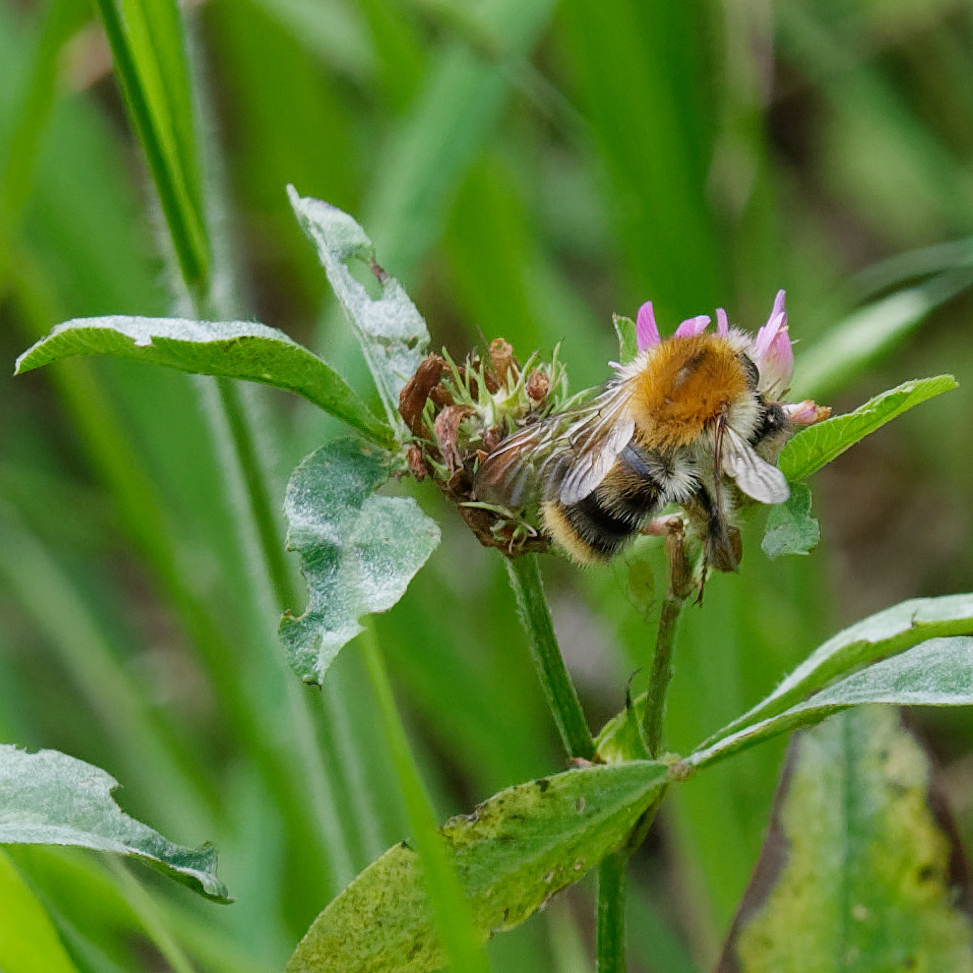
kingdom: Animalia
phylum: Arthropoda
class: Insecta
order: Hymenoptera
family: Apidae
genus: Bombus
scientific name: Bombus pascuorum
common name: Common carder bee
